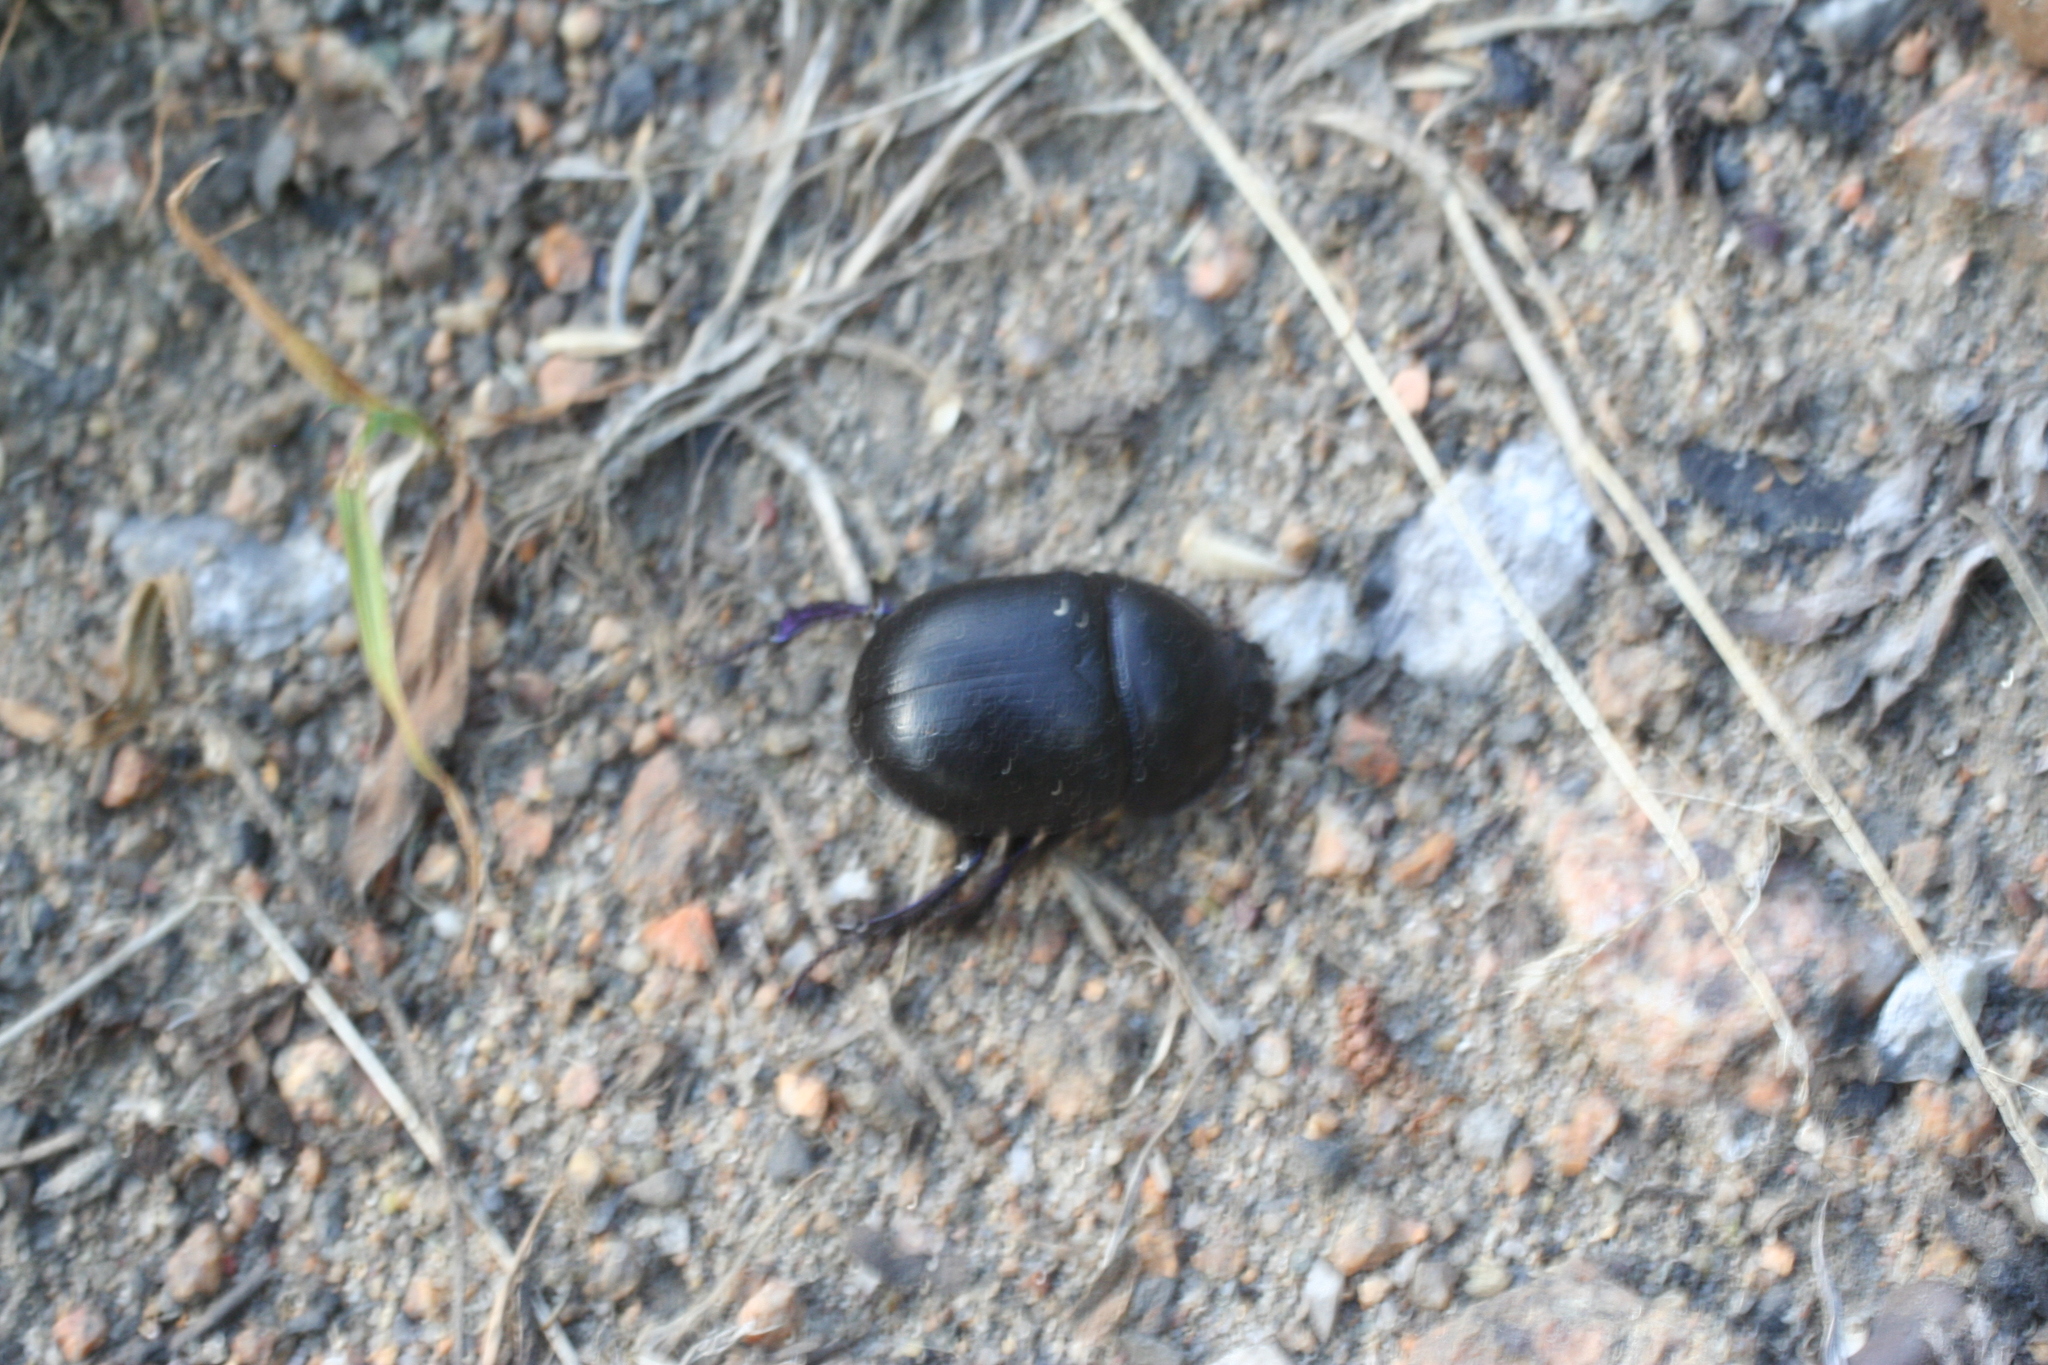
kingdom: Animalia
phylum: Arthropoda
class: Insecta
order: Coleoptera
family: Geotrupidae
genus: Anoplotrupes
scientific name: Anoplotrupes stercorosus
